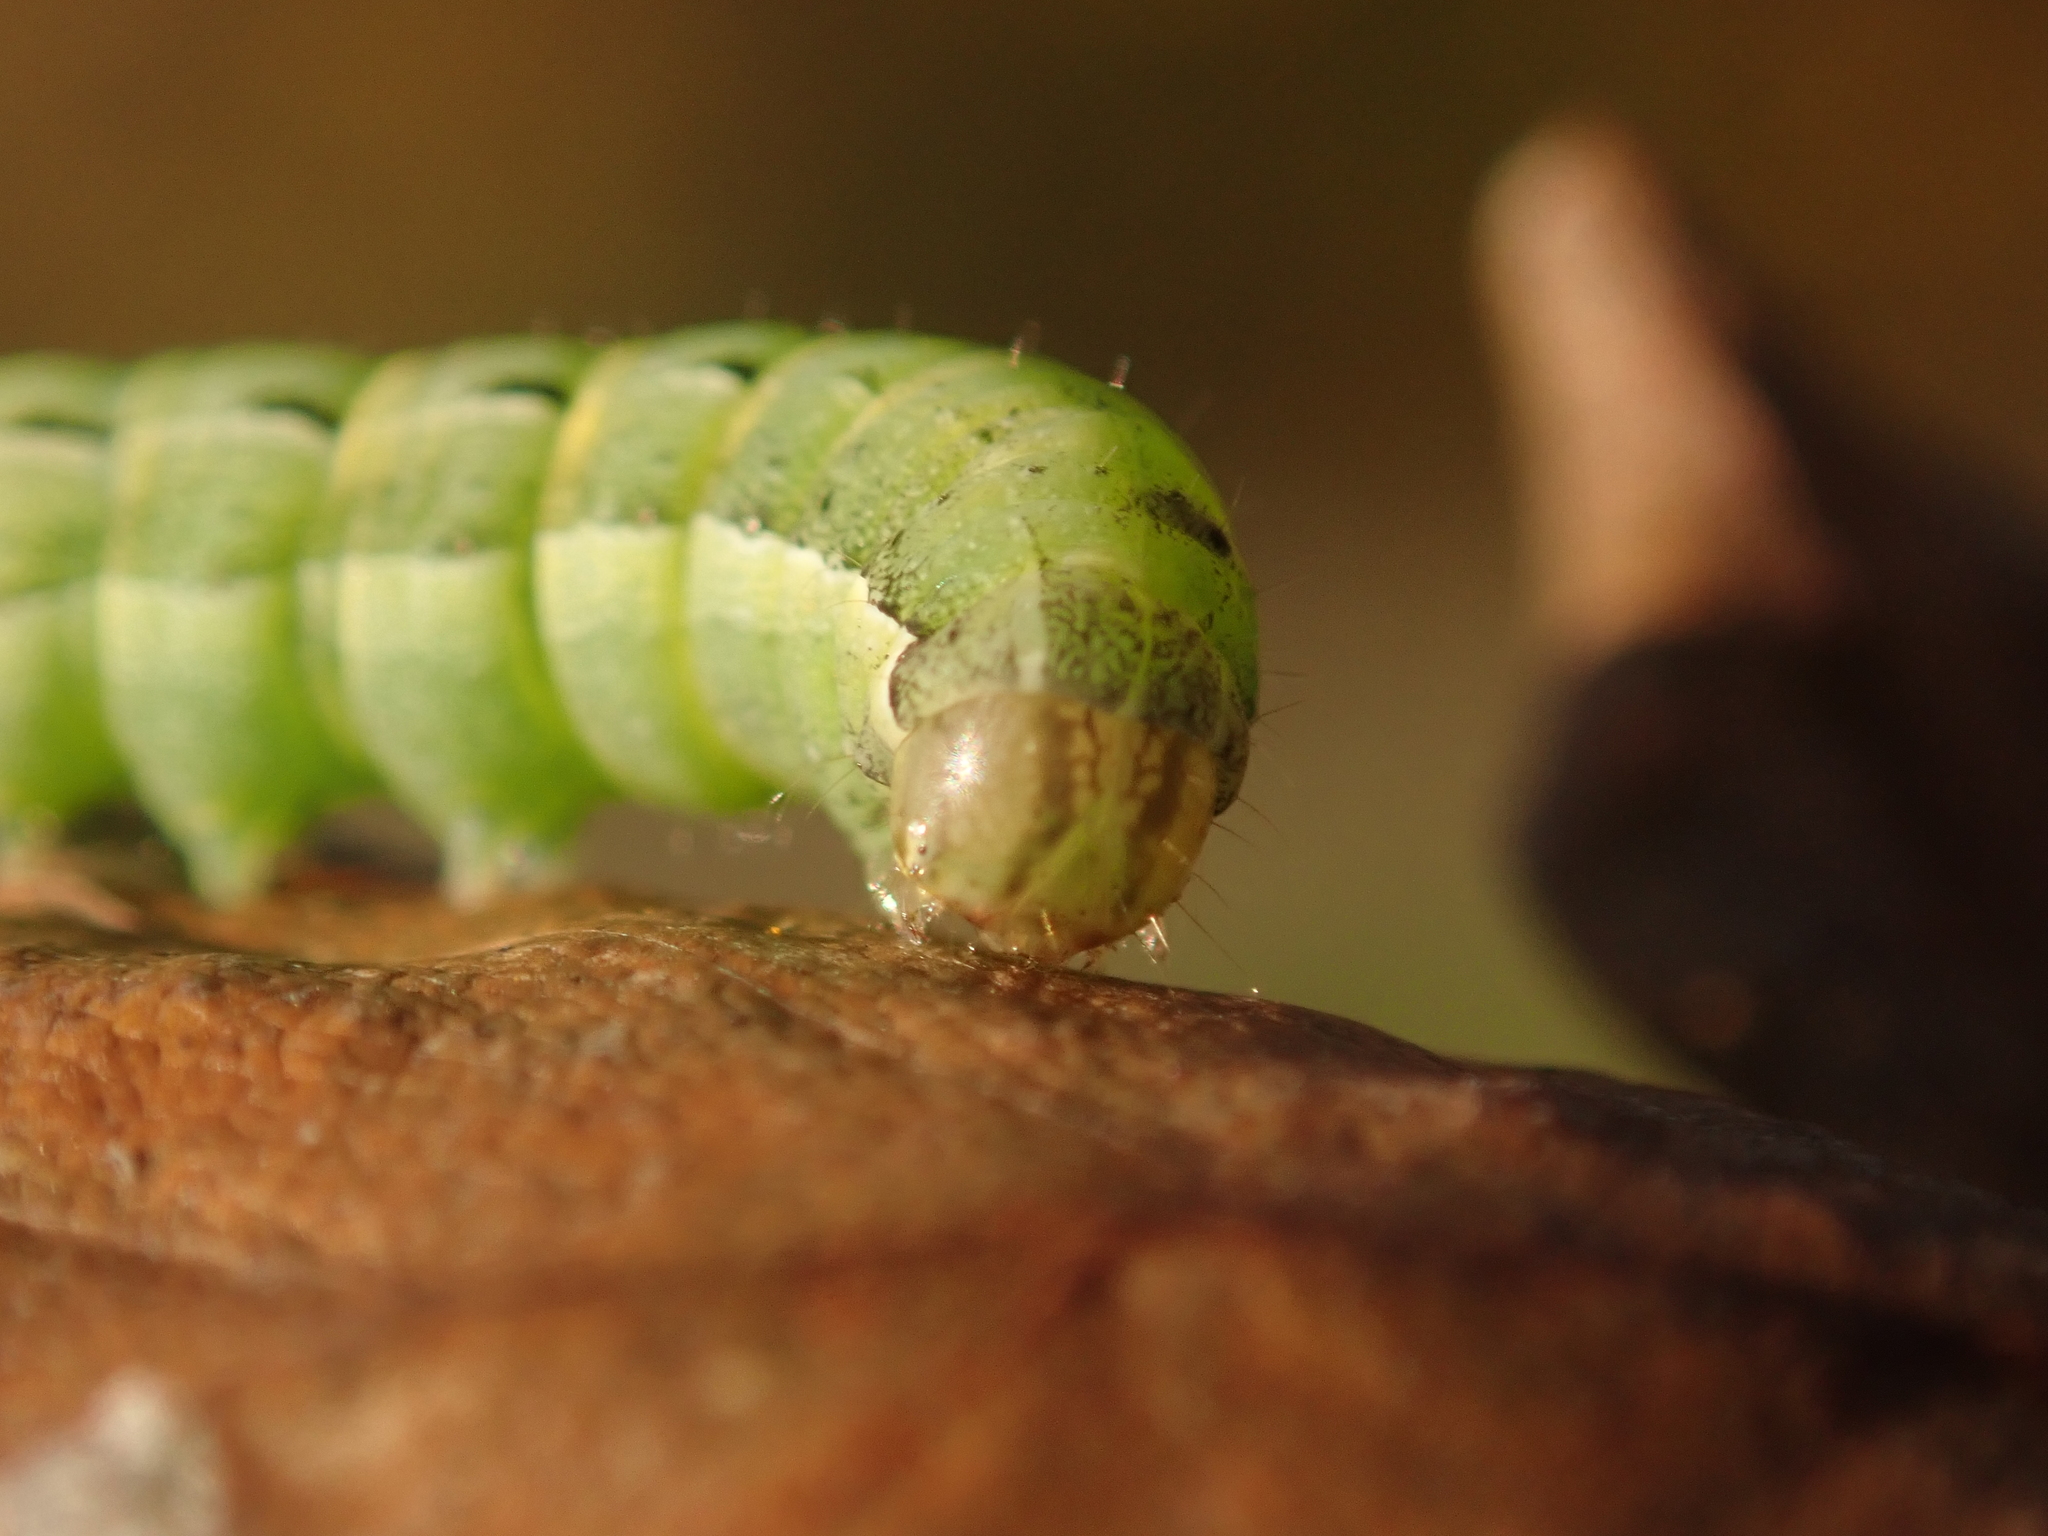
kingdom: Animalia
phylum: Arthropoda
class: Insecta
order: Lepidoptera
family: Noctuidae
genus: Noctua
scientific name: Noctua pronuba
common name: Large yellow underwing
